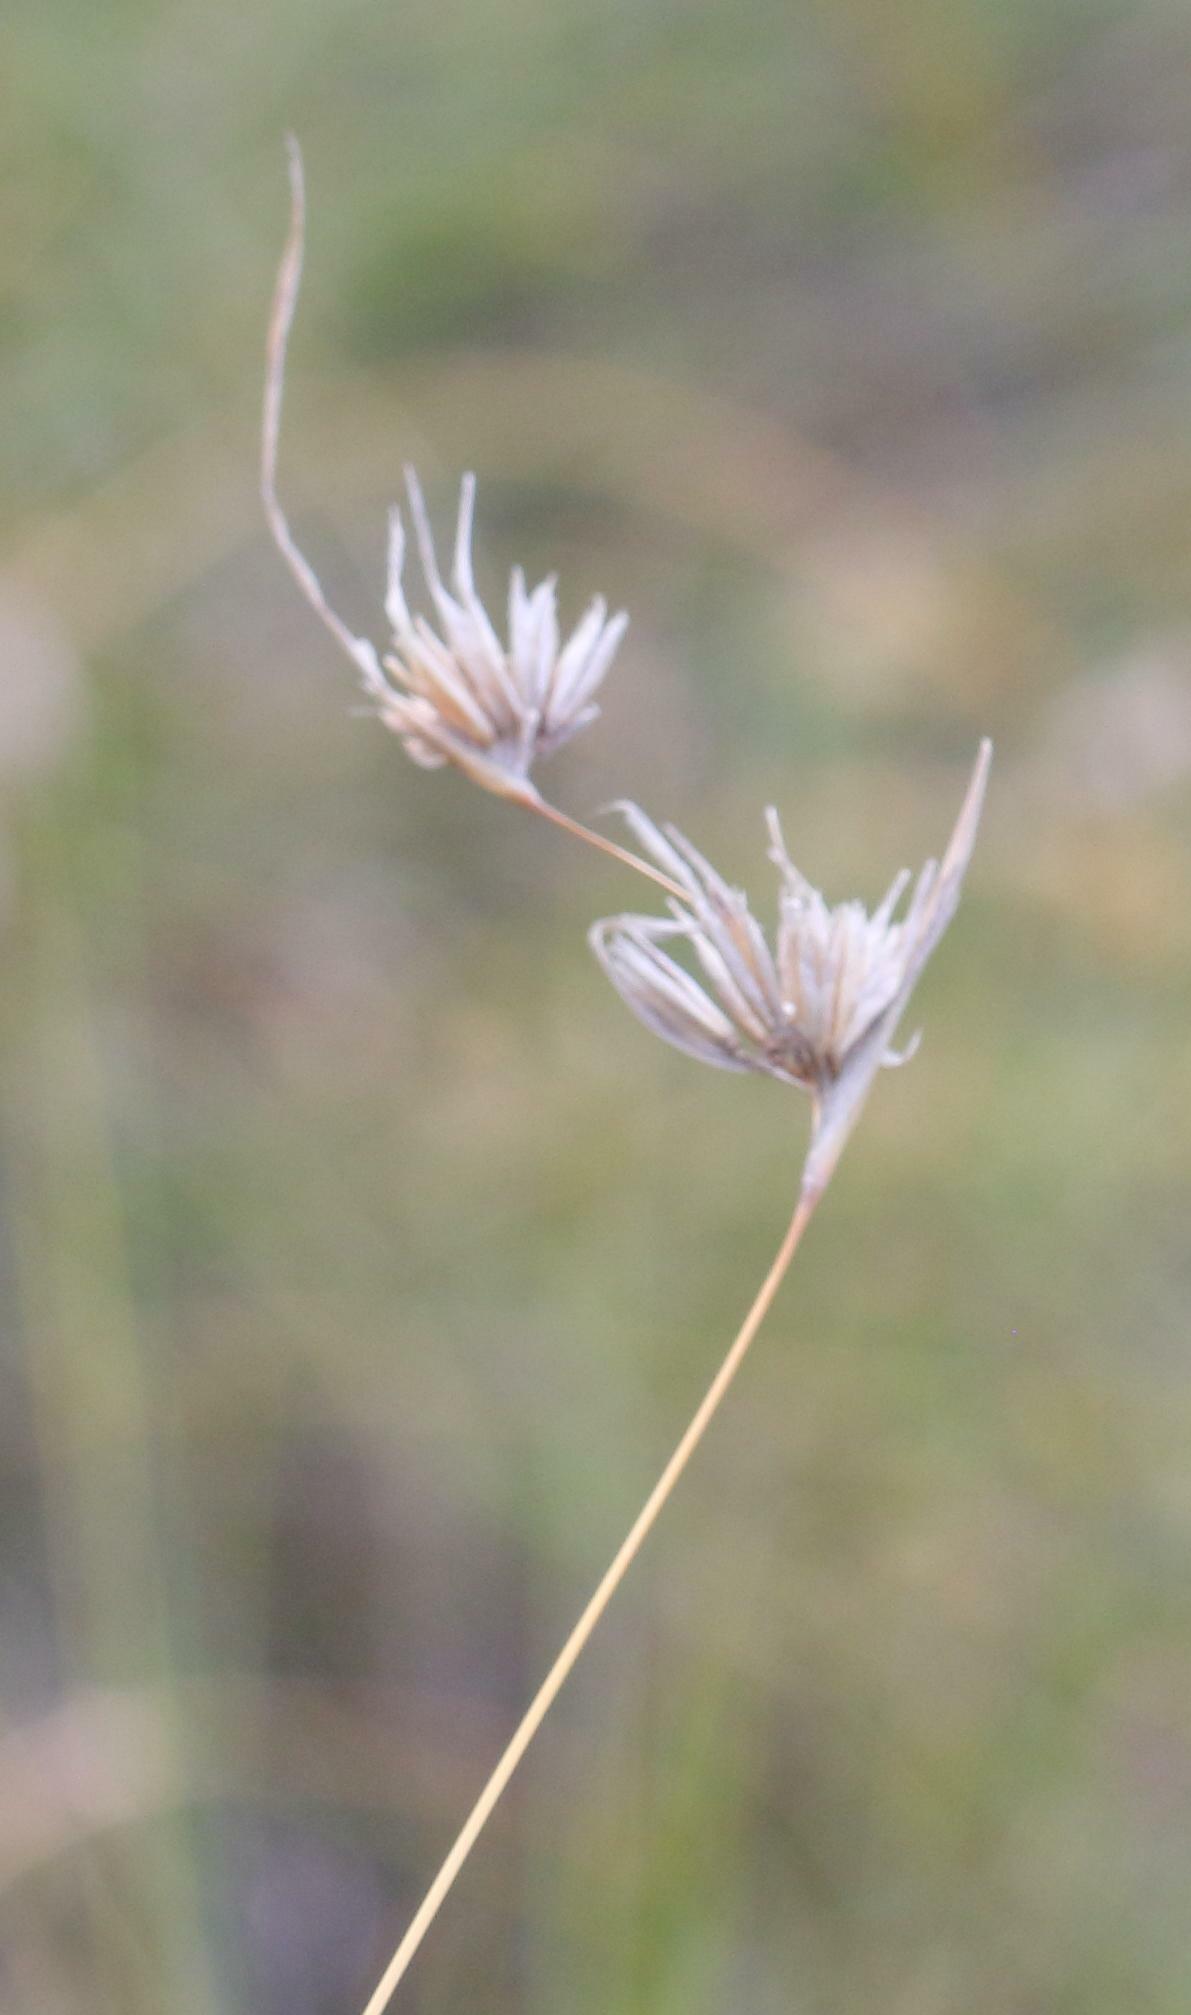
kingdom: Plantae
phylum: Tracheophyta
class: Liliopsida
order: Poales
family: Poaceae
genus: Themeda
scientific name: Themeda triandra
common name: Kangaroo grass
